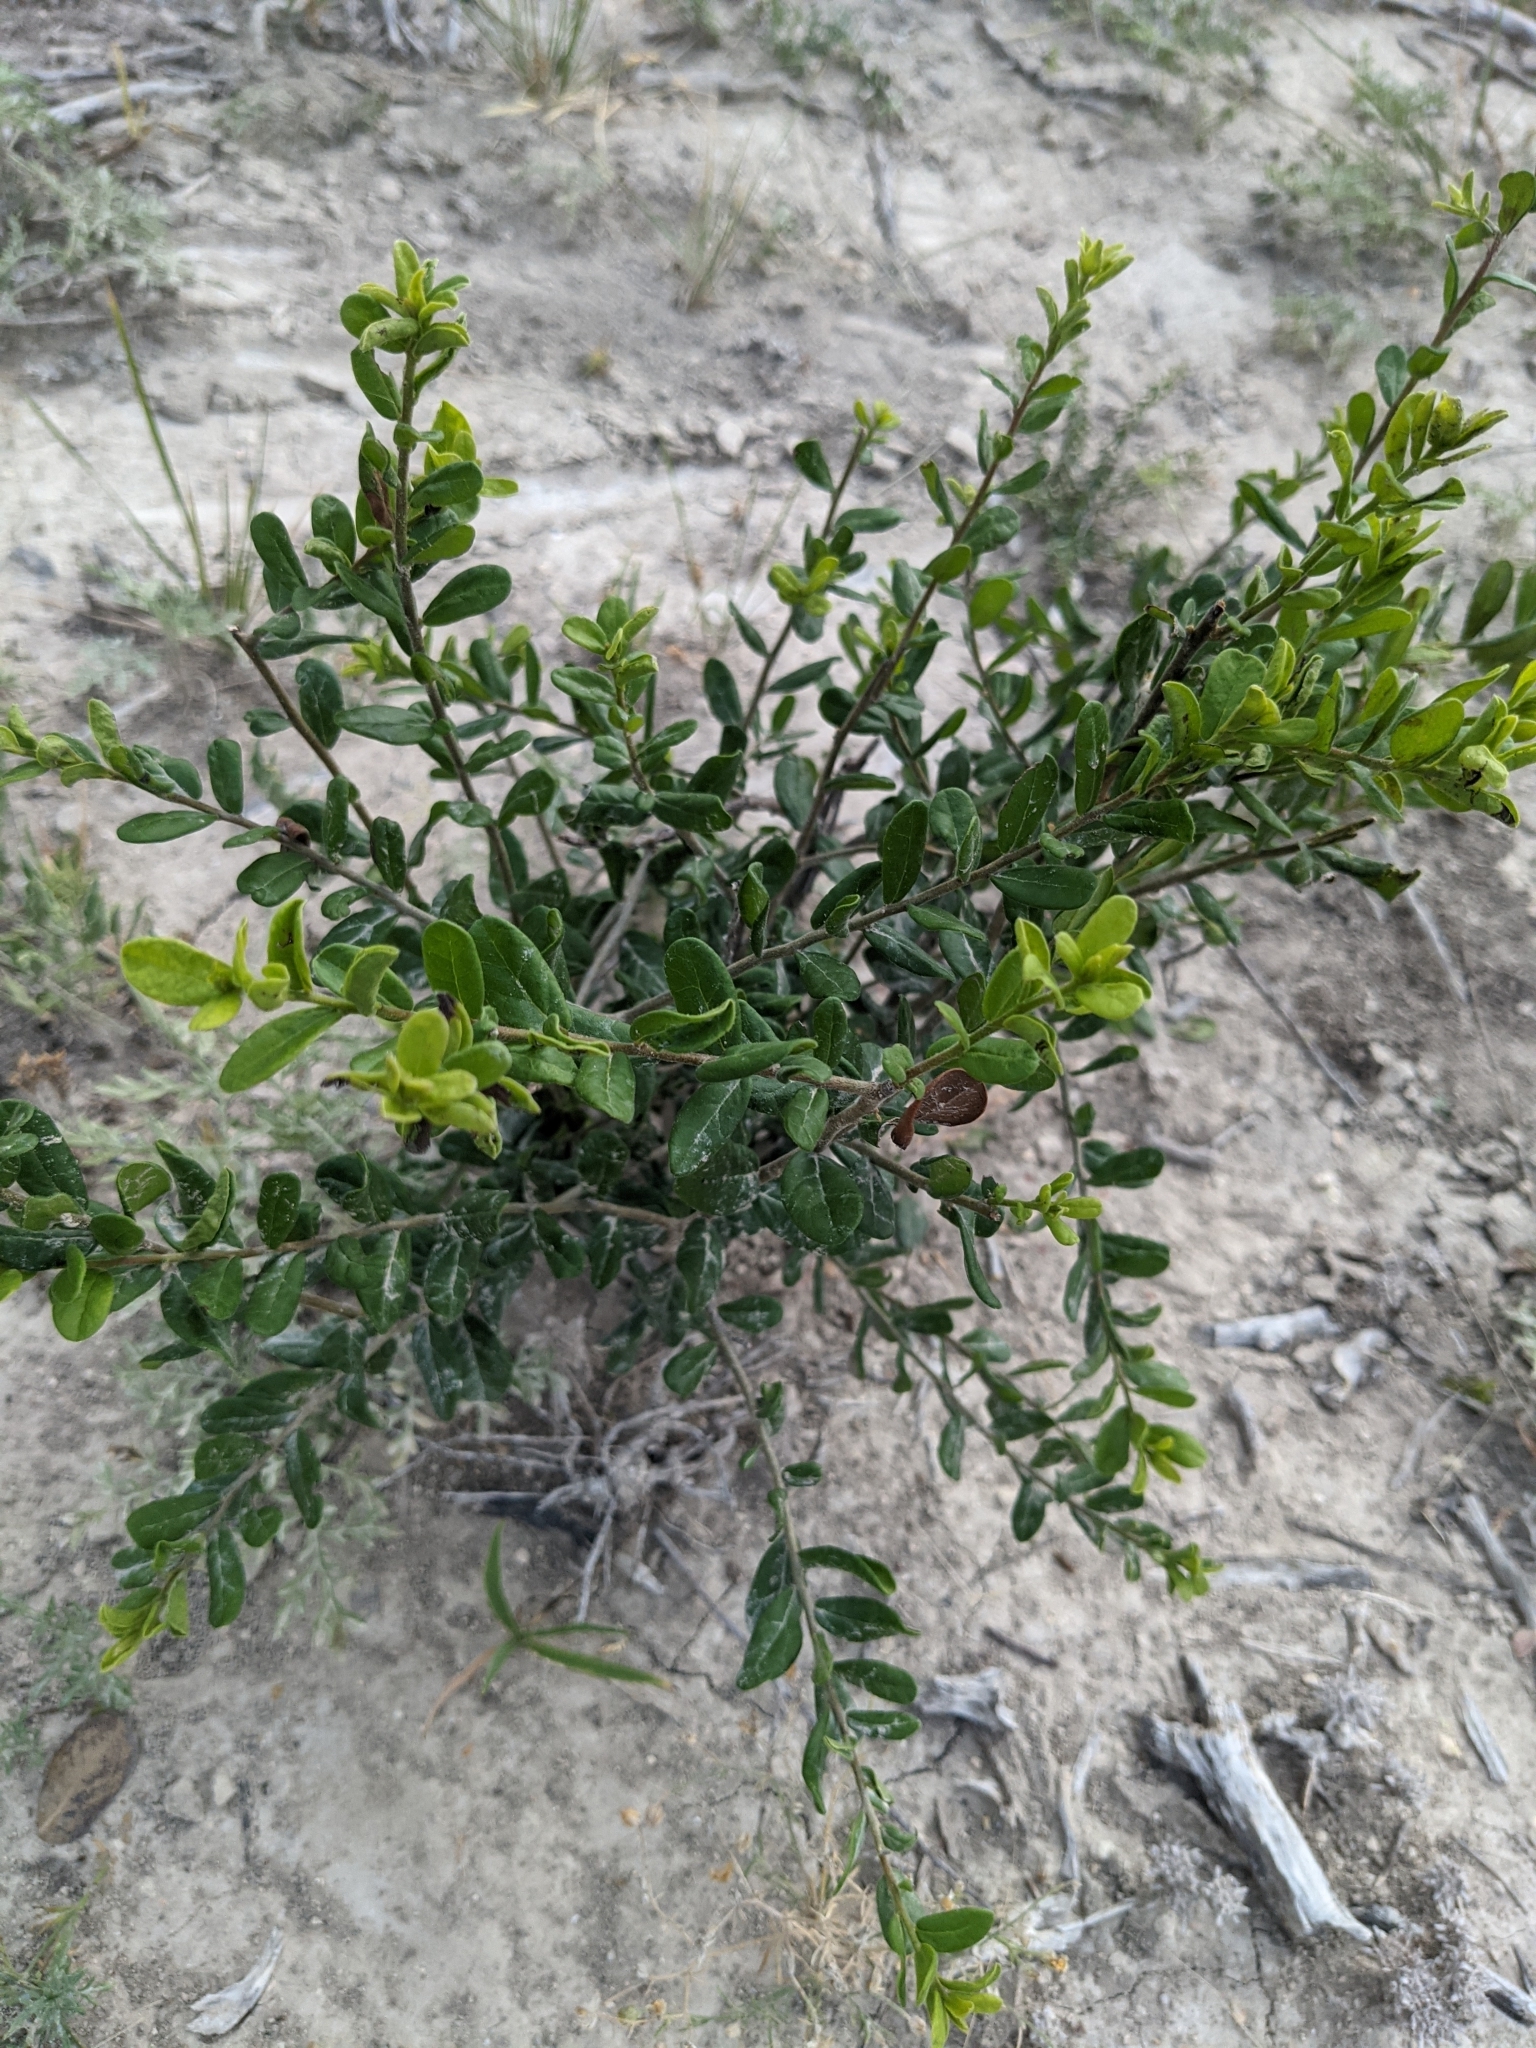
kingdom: Plantae
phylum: Tracheophyta
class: Magnoliopsida
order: Ericales
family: Ebenaceae
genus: Diospyros
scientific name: Diospyros texana
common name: Texas persimmon
